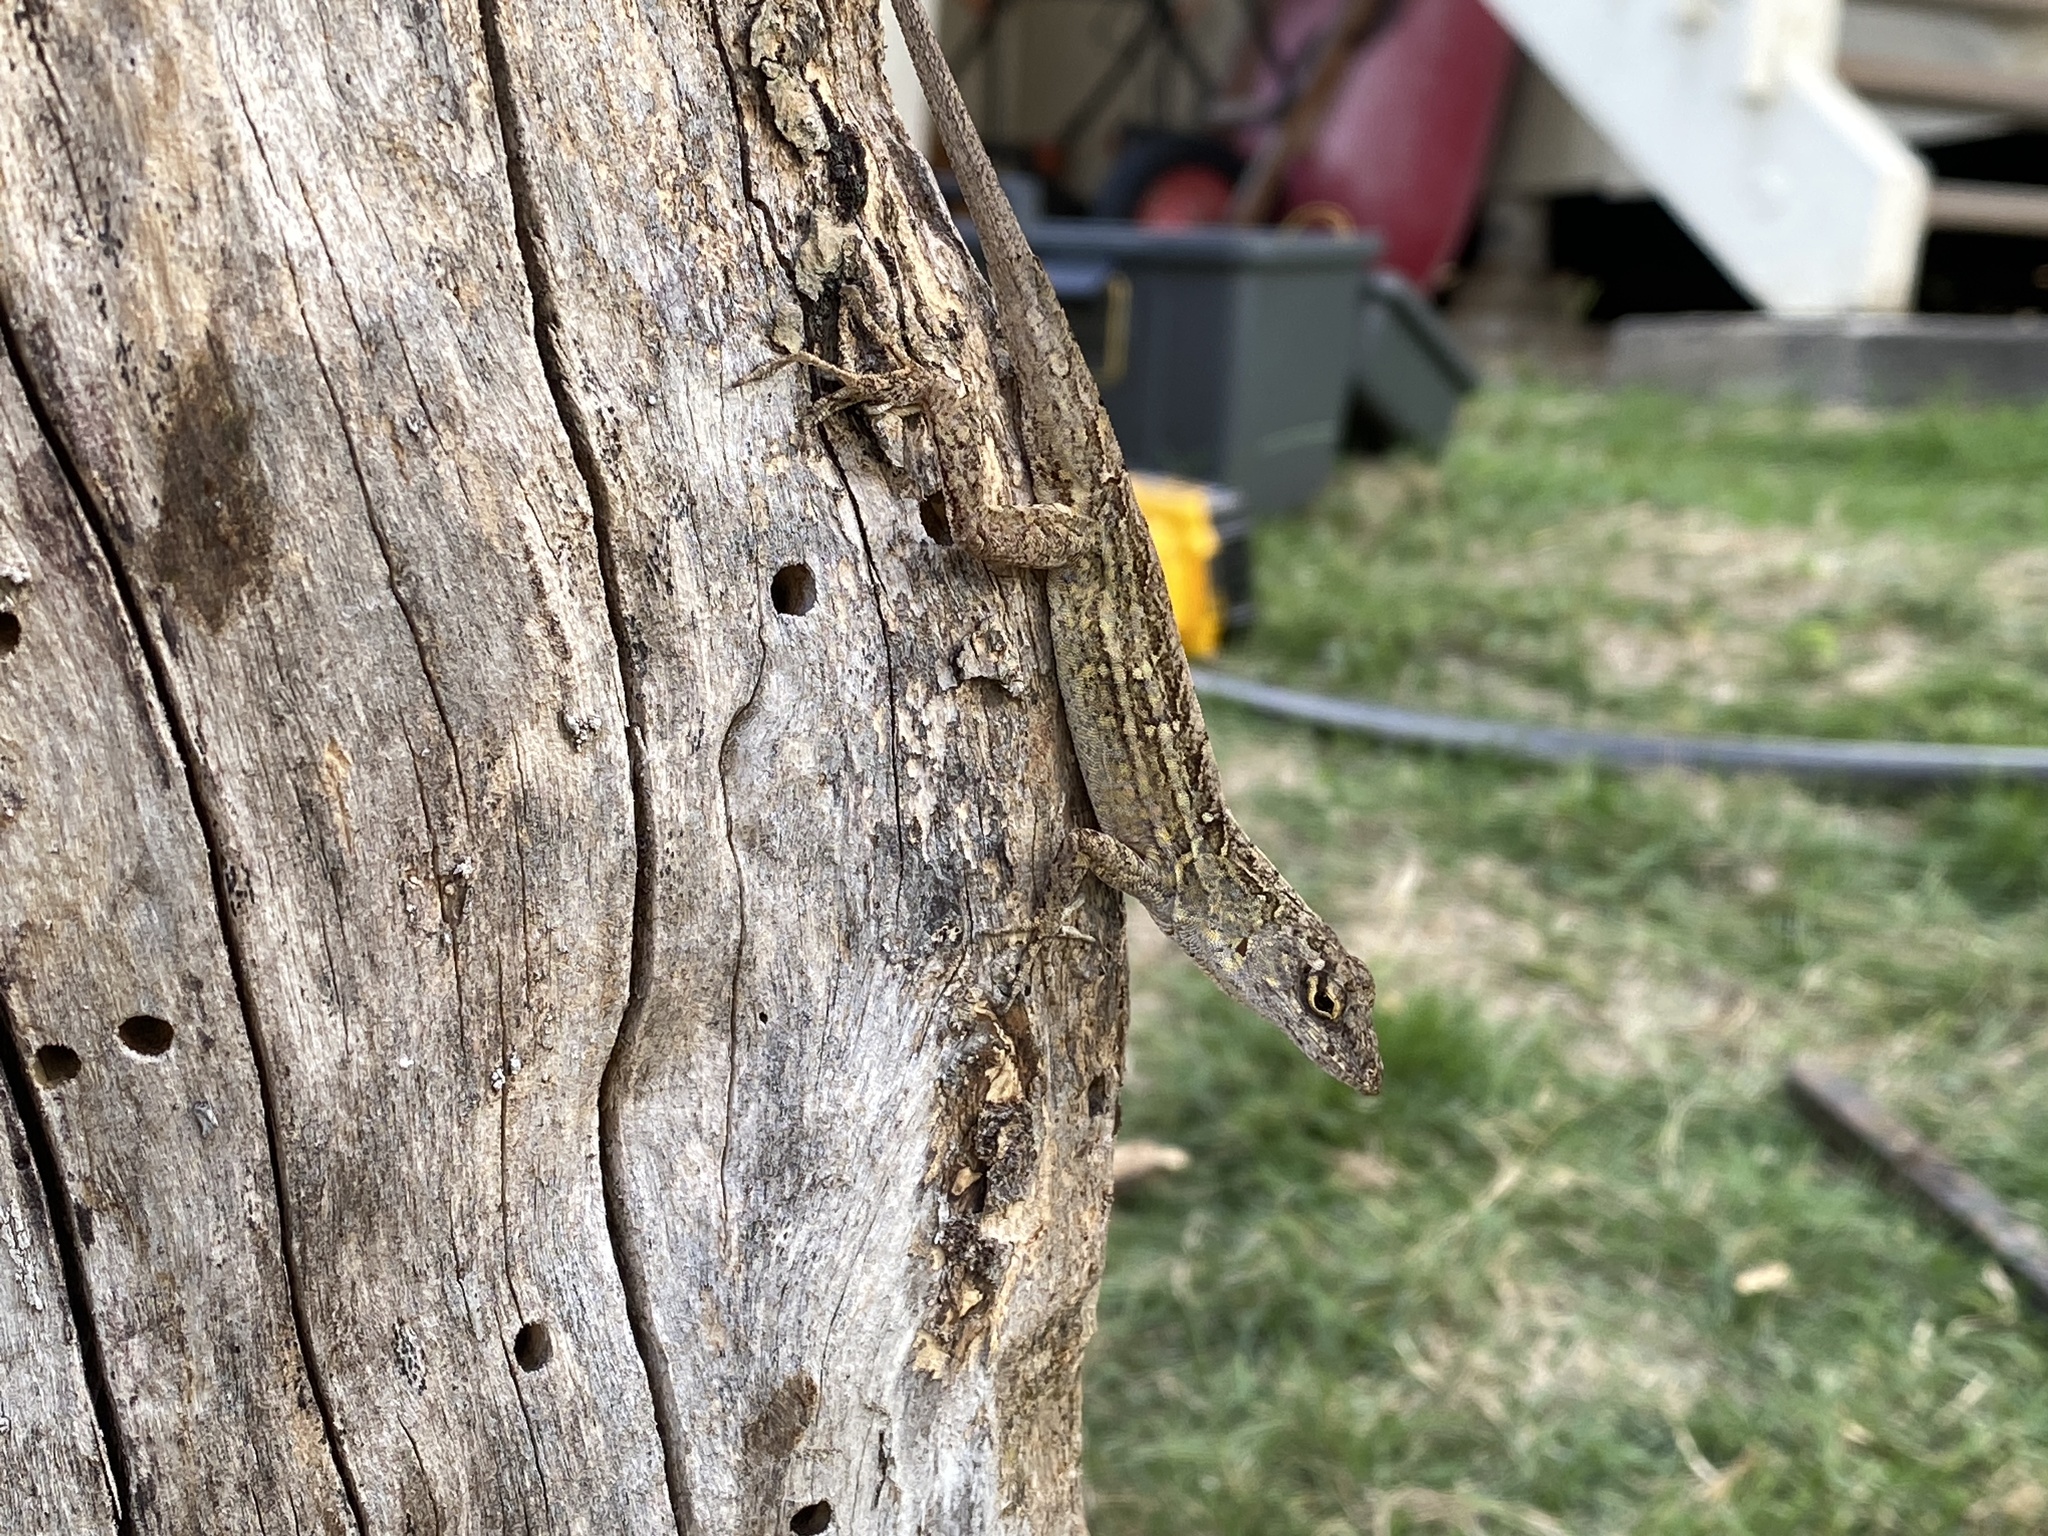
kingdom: Animalia
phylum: Chordata
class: Squamata
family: Dactyloidae
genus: Anolis
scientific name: Anolis sagrei
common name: Brown anole
